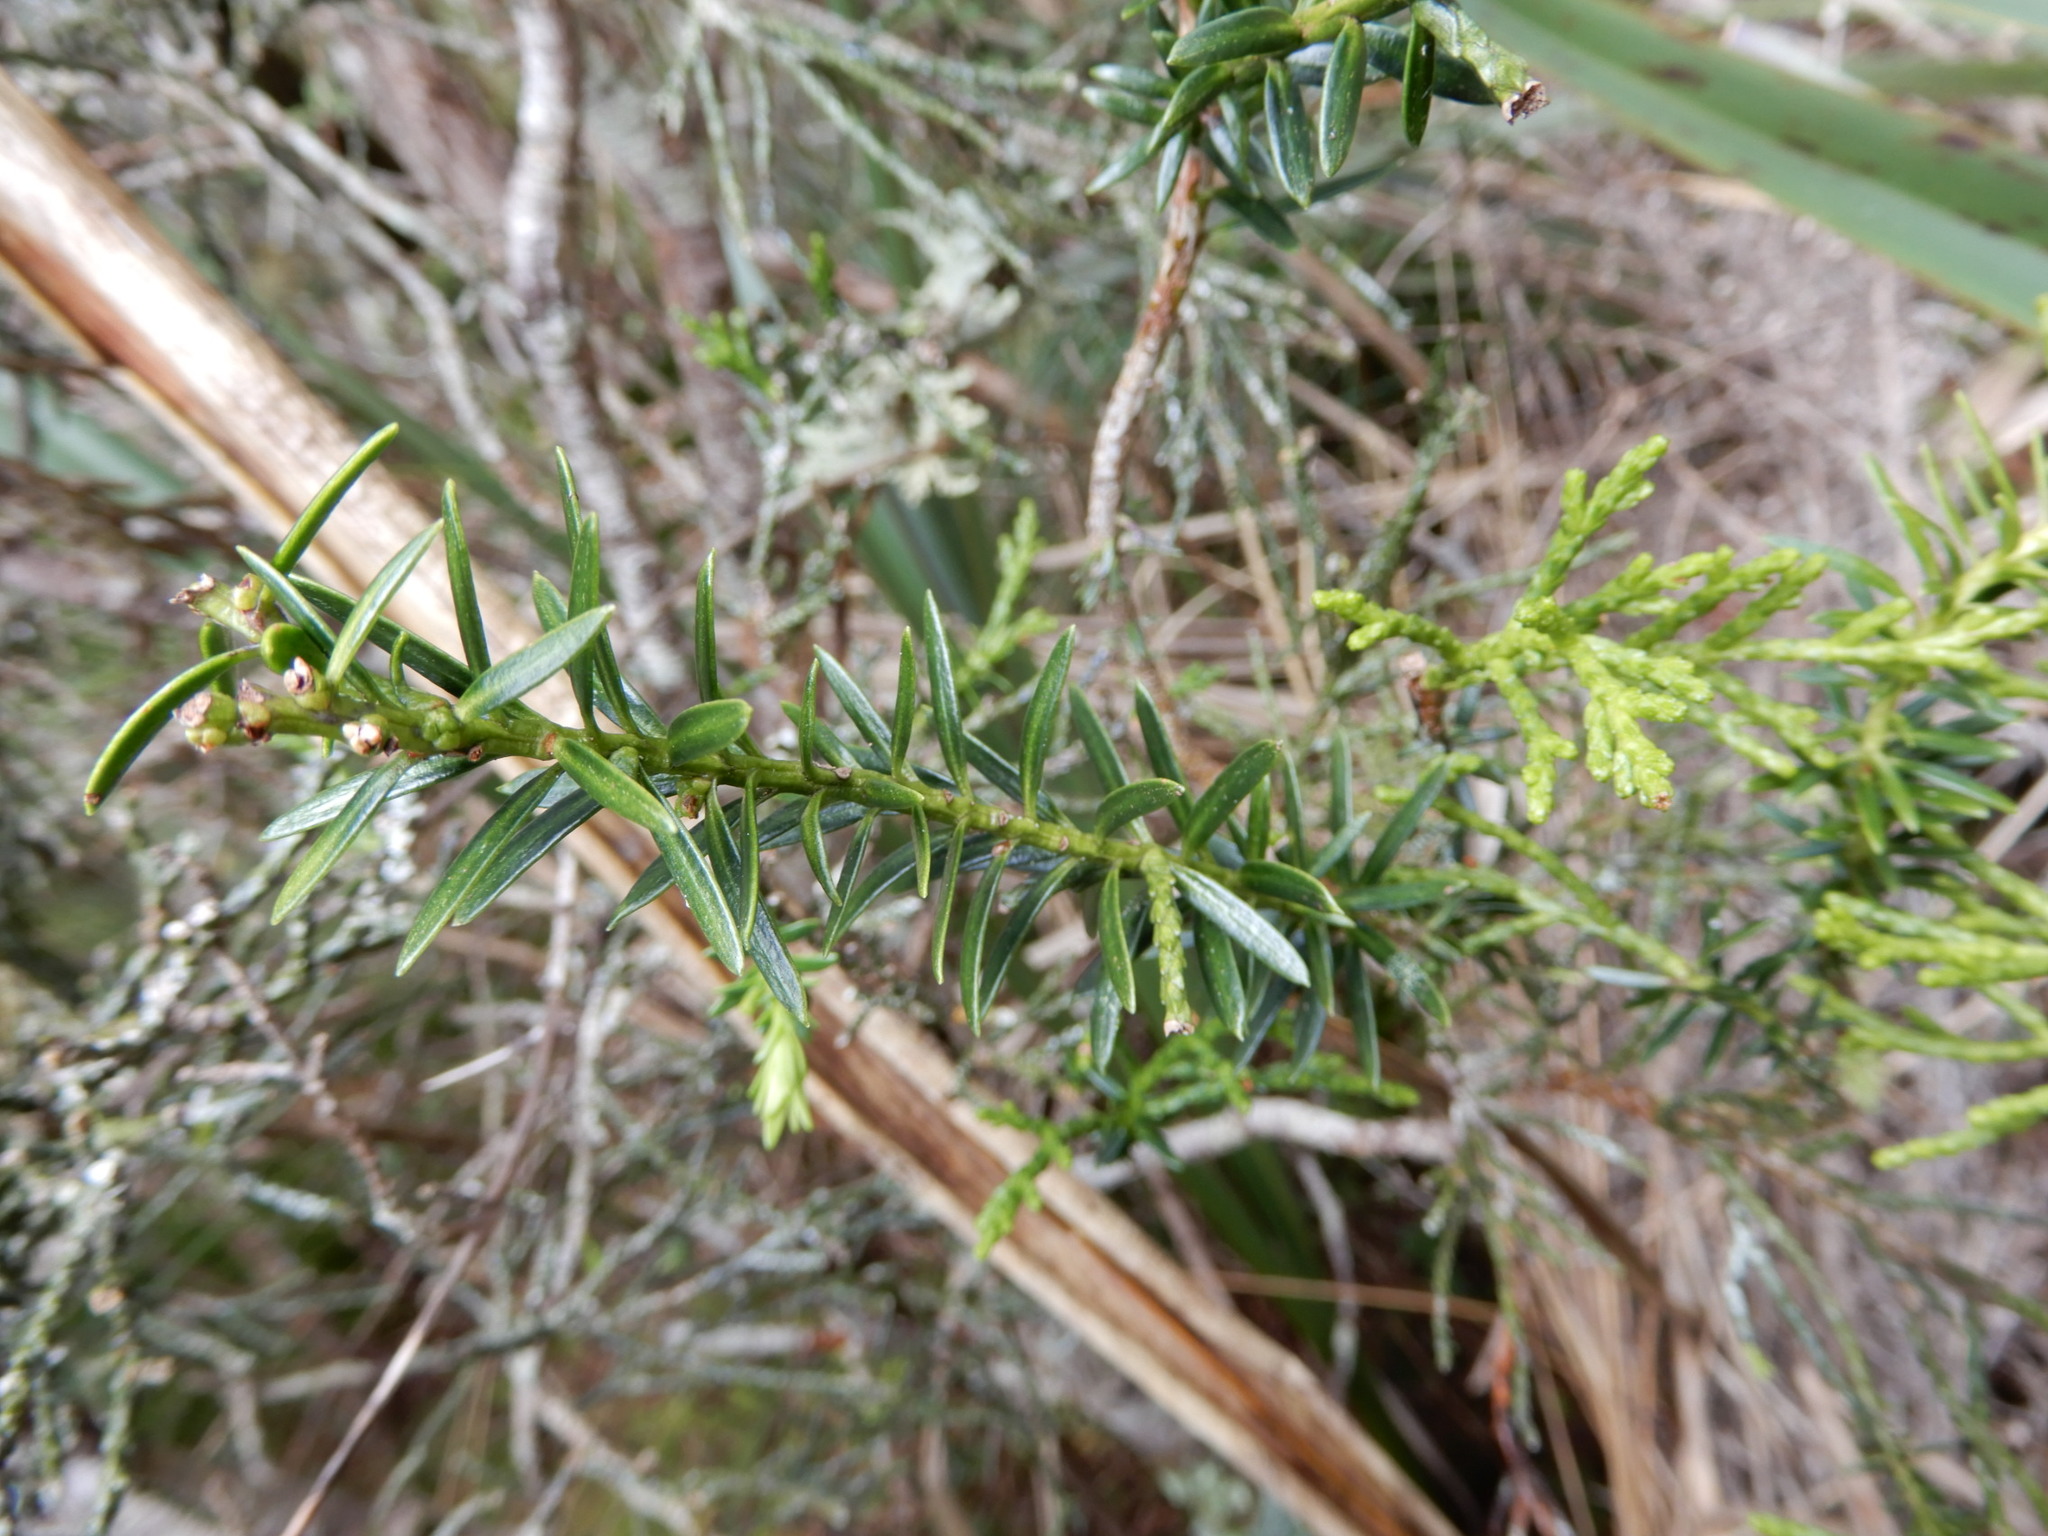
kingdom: Plantae
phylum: Tracheophyta
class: Pinopsida
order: Pinales
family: Podocarpaceae
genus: Halocarpus
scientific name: Halocarpus biformis
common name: Alpine tarwood
